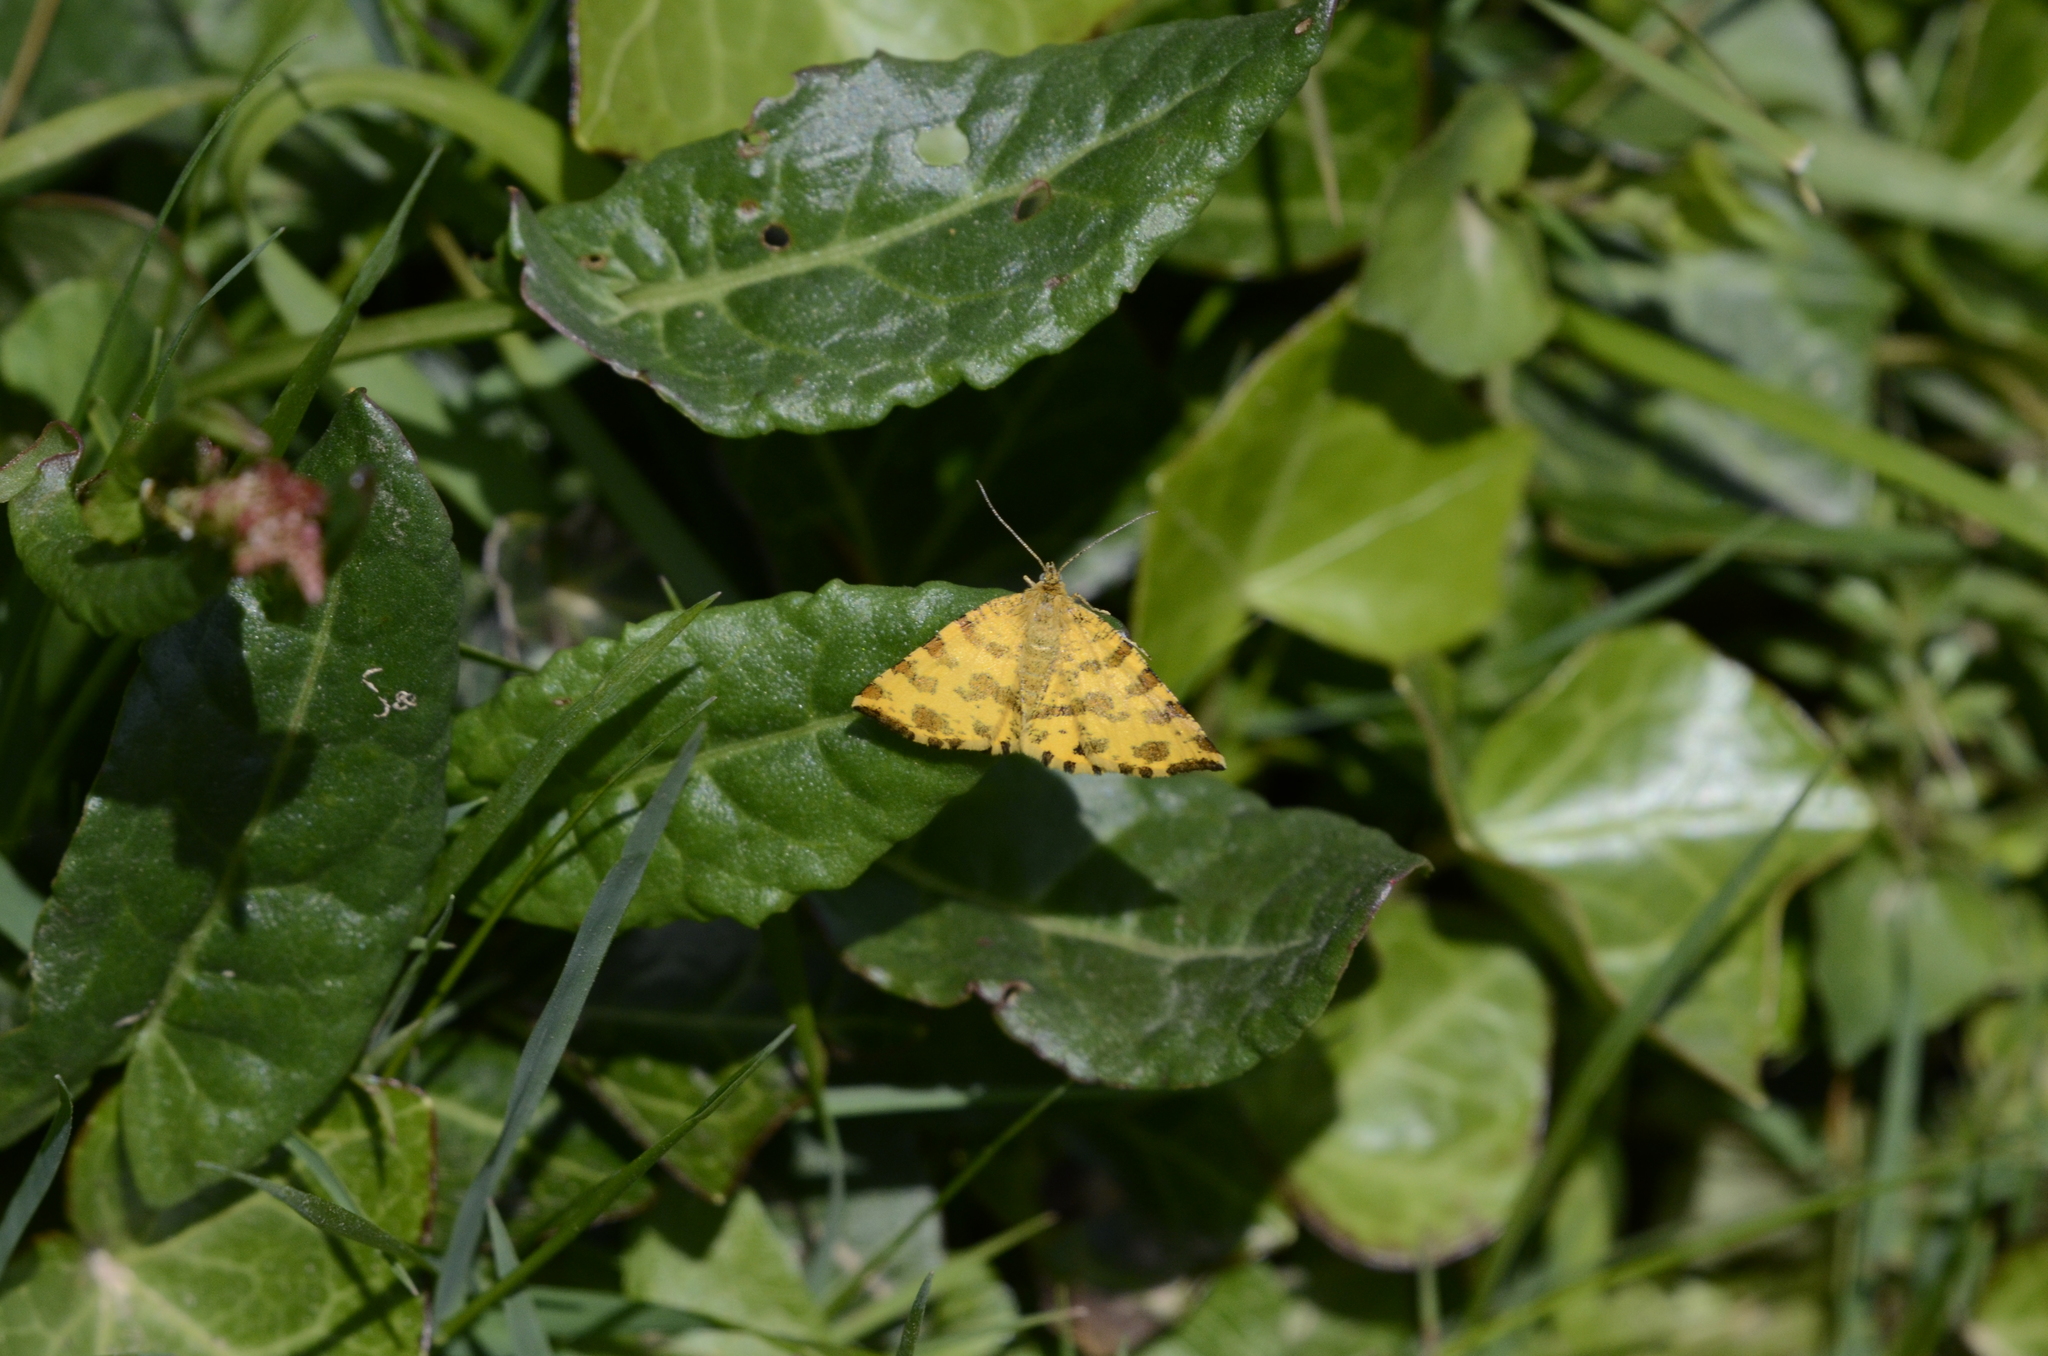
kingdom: Animalia
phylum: Arthropoda
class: Insecta
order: Lepidoptera
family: Geometridae
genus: Pseudopanthera
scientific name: Pseudopanthera macularia
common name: Speckled yellow
